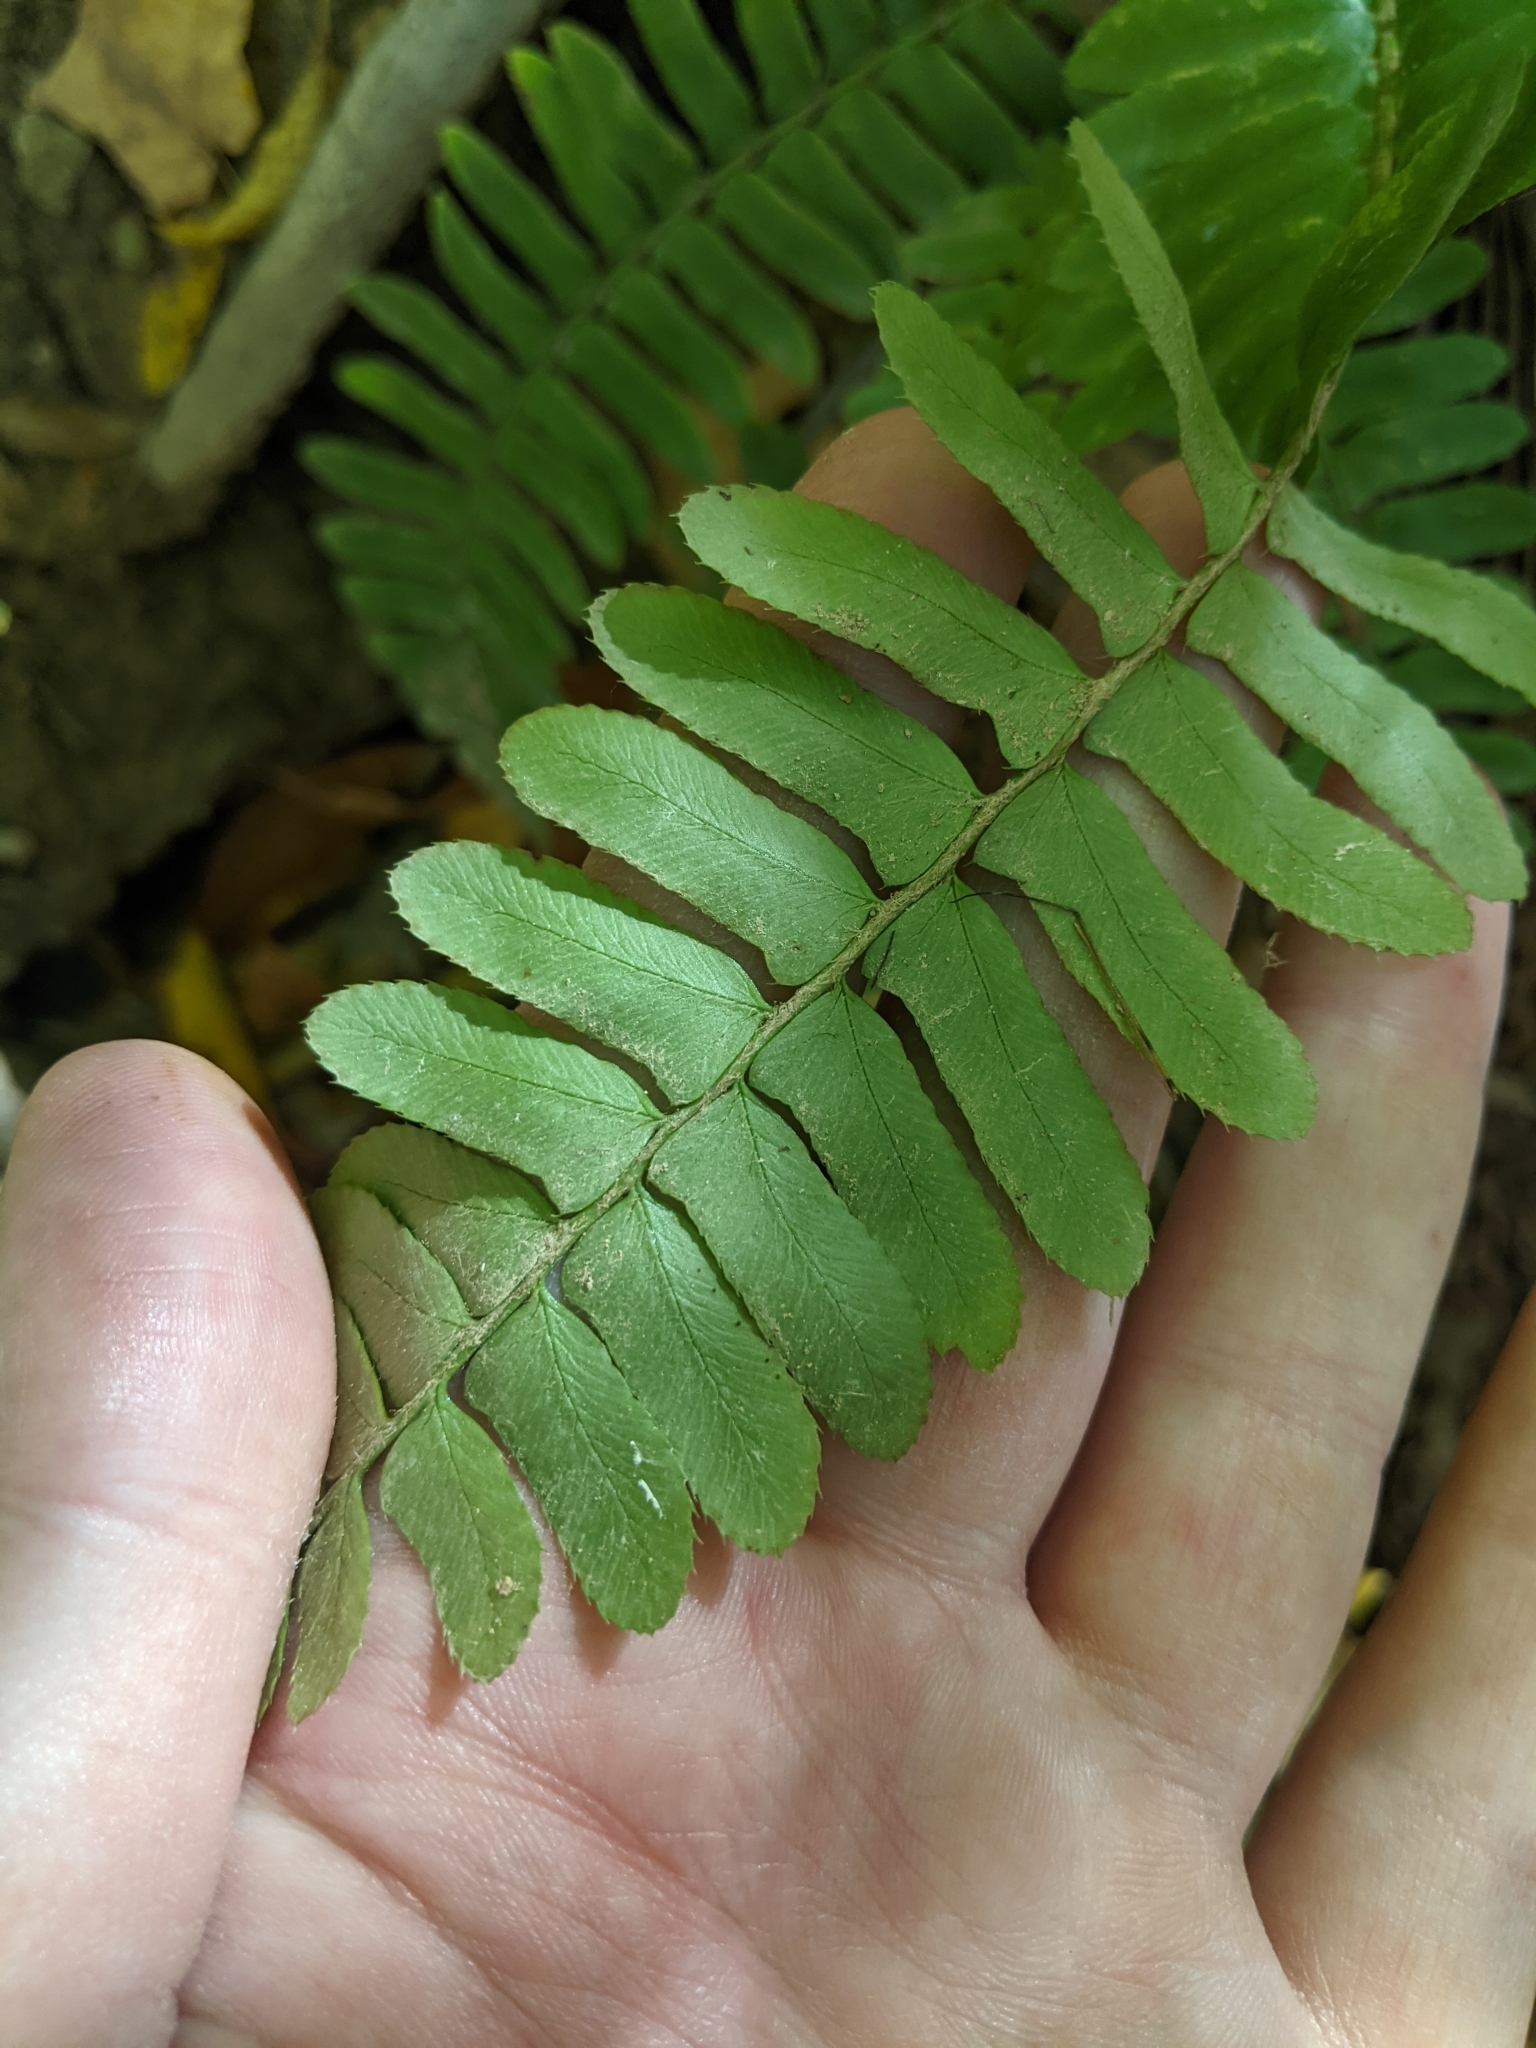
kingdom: Plantae
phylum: Tracheophyta
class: Polypodiopsida
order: Polypodiales
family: Dryopteridaceae
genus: Polystichum
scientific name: Polystichum acrostichoides
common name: Christmas fern
